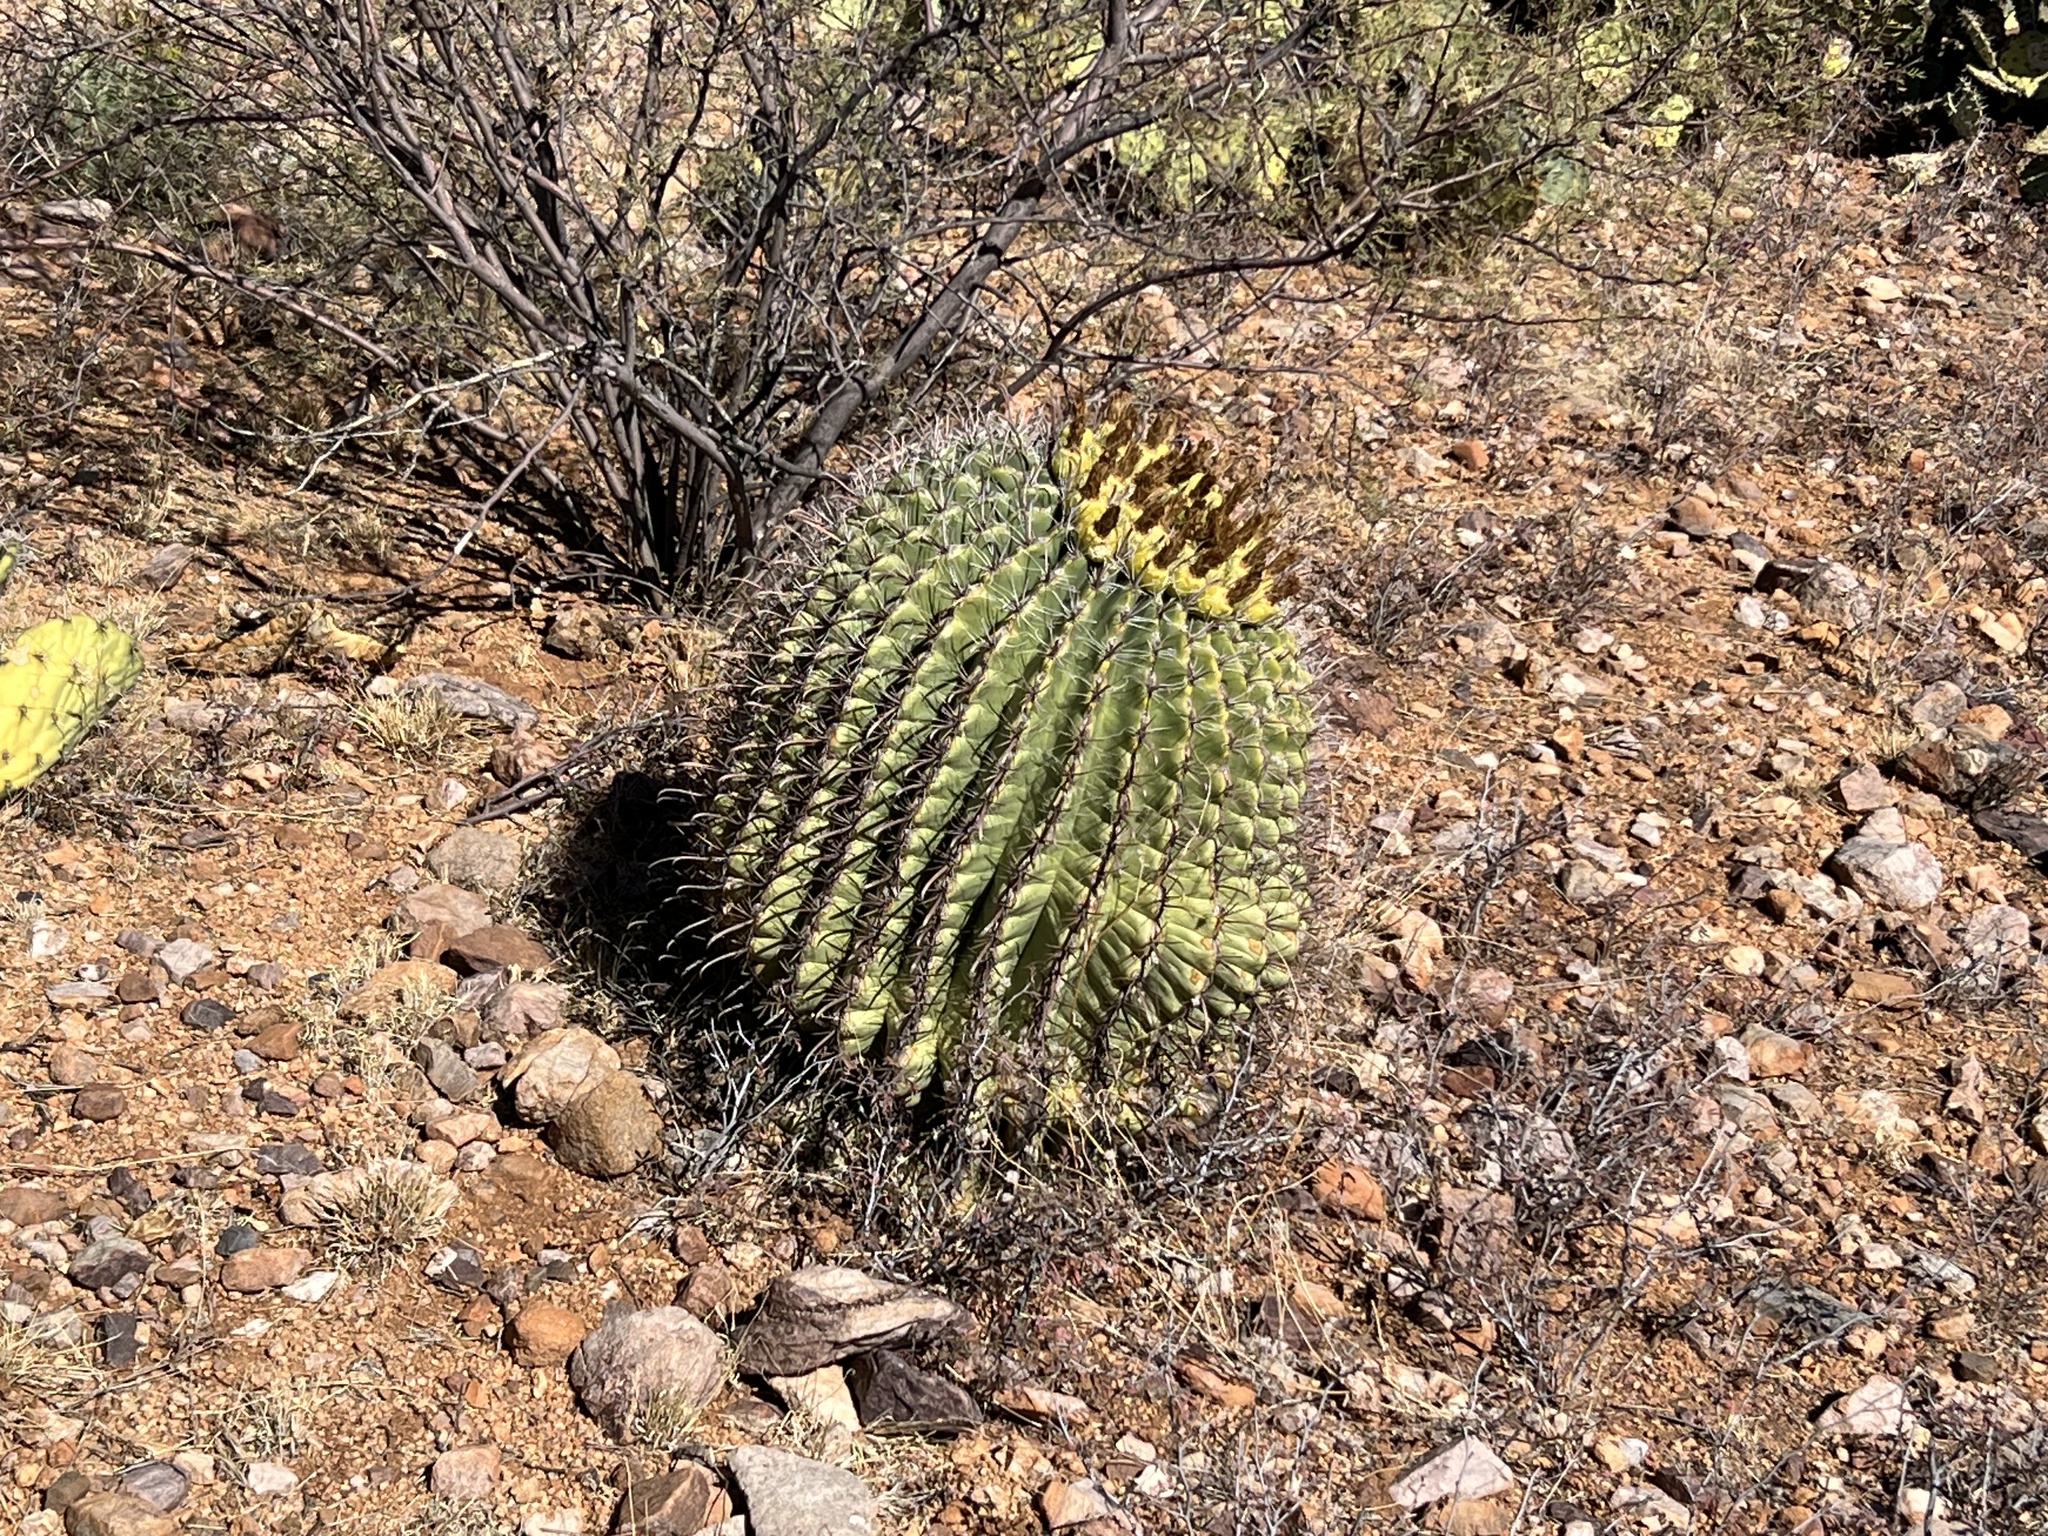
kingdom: Plantae
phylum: Tracheophyta
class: Magnoliopsida
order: Caryophyllales
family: Cactaceae
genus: Ferocactus
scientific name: Ferocactus wislizeni
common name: Candy barrel cactus
